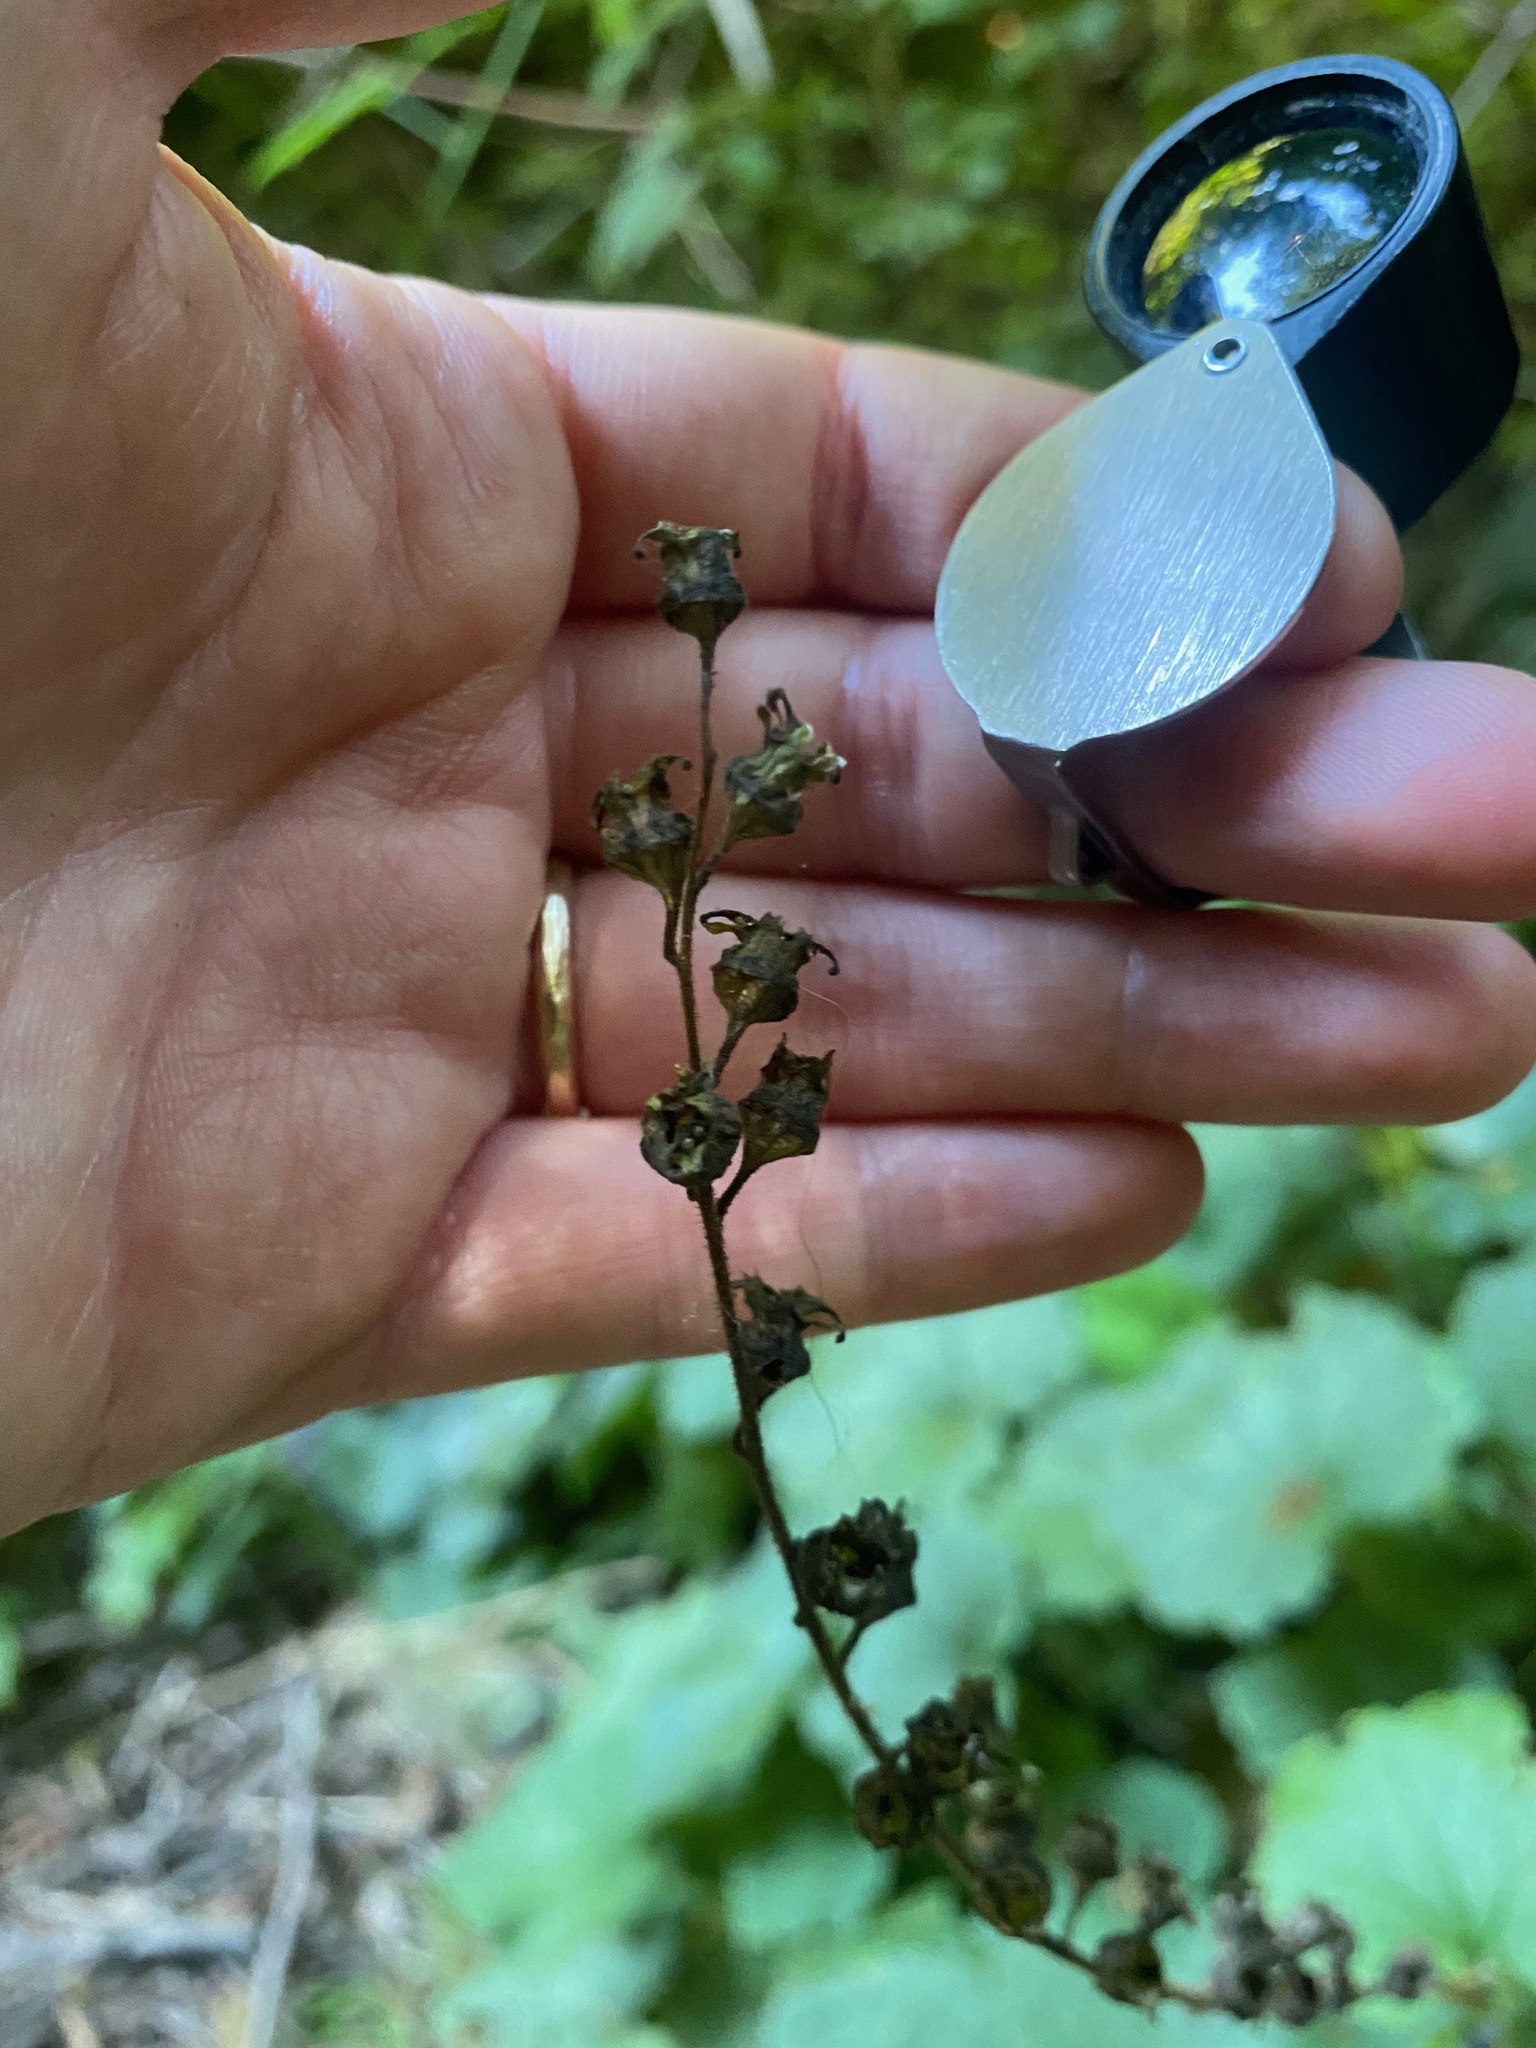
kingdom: Plantae
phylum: Tracheophyta
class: Magnoliopsida
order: Saxifragales
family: Saxifragaceae
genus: Tellima
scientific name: Tellima grandiflora
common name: Fringecups
